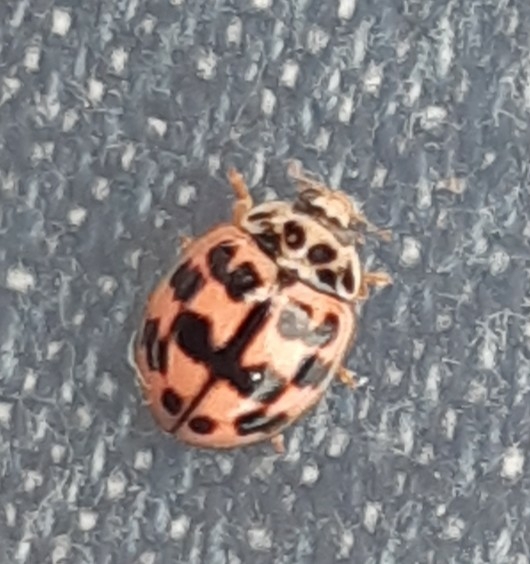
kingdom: Animalia
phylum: Arthropoda
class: Insecta
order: Coleoptera
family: Coccinellidae
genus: Oenopia
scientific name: Oenopia conglobata
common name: Ladybird beetle
